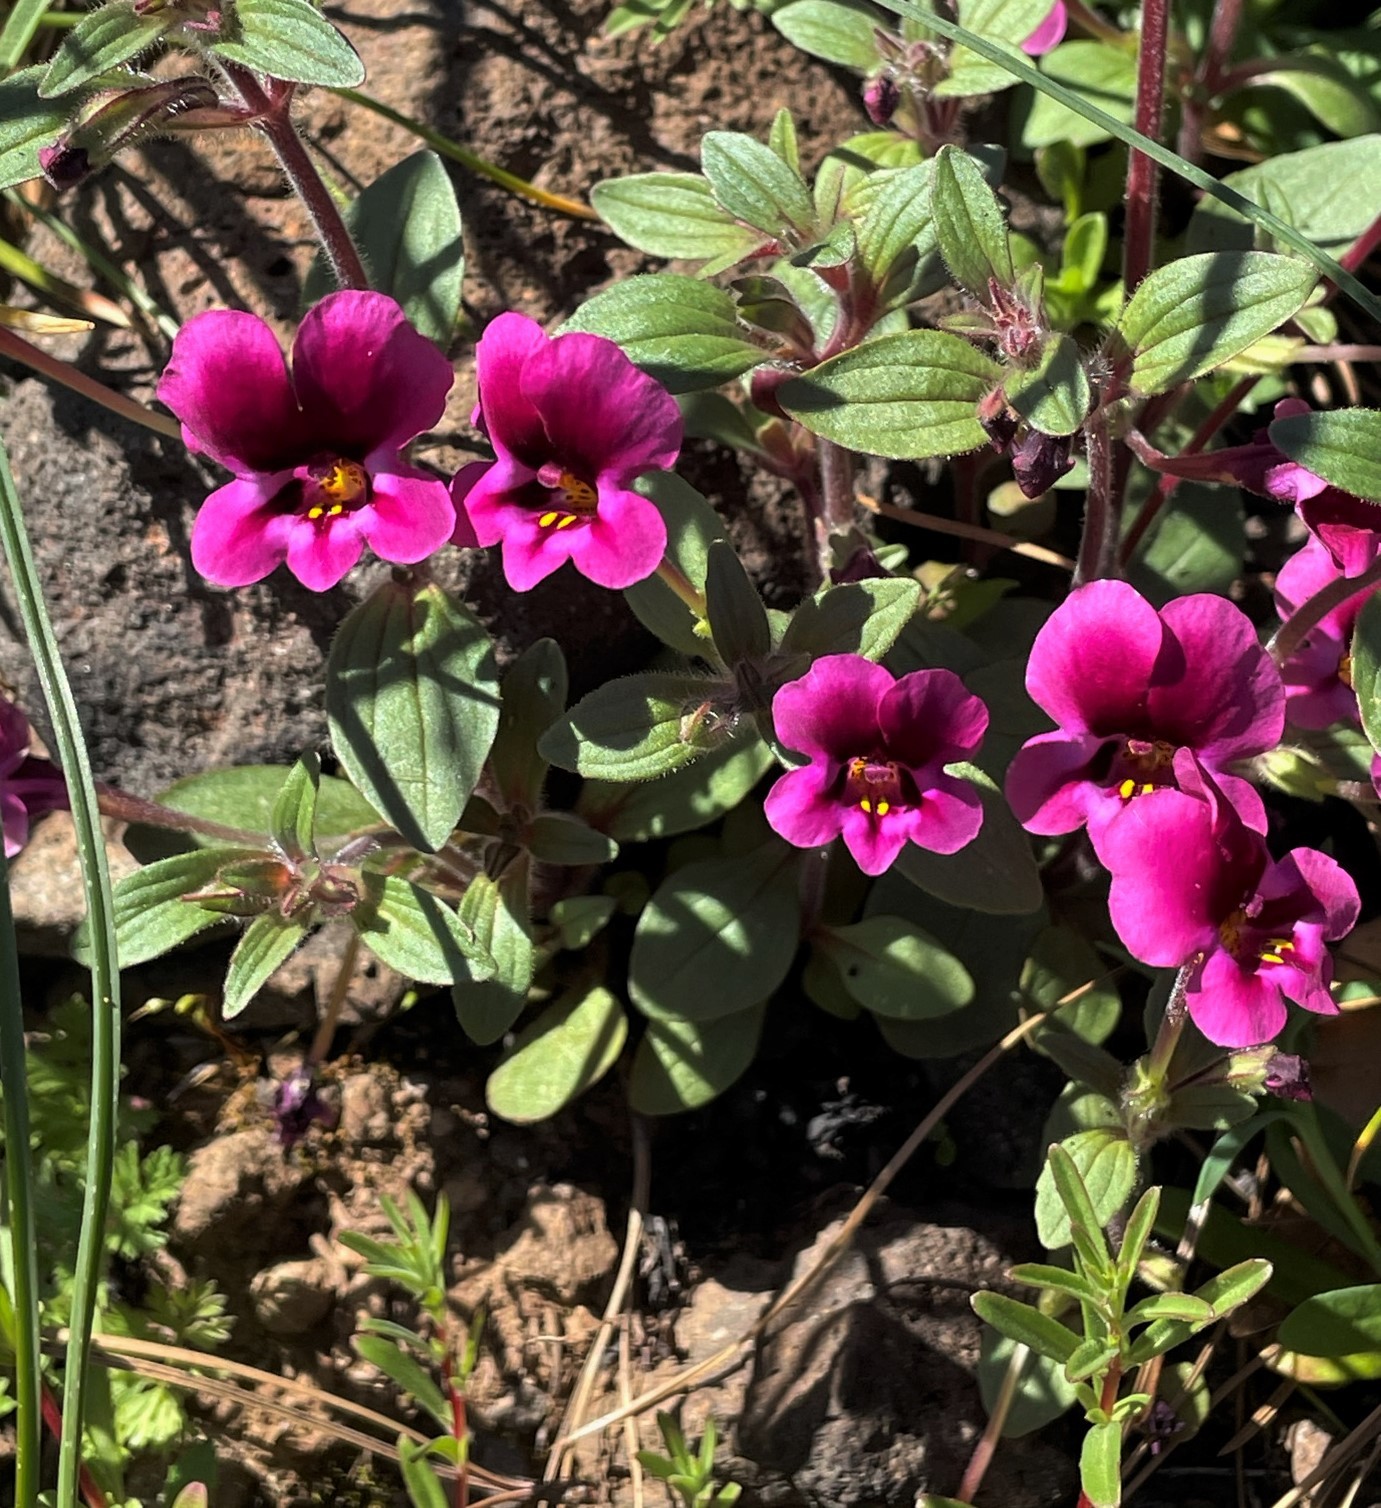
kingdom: Plantae
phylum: Tracheophyta
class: Magnoliopsida
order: Lamiales
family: Phrymaceae
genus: Diplacus
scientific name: Diplacus kelloggii
